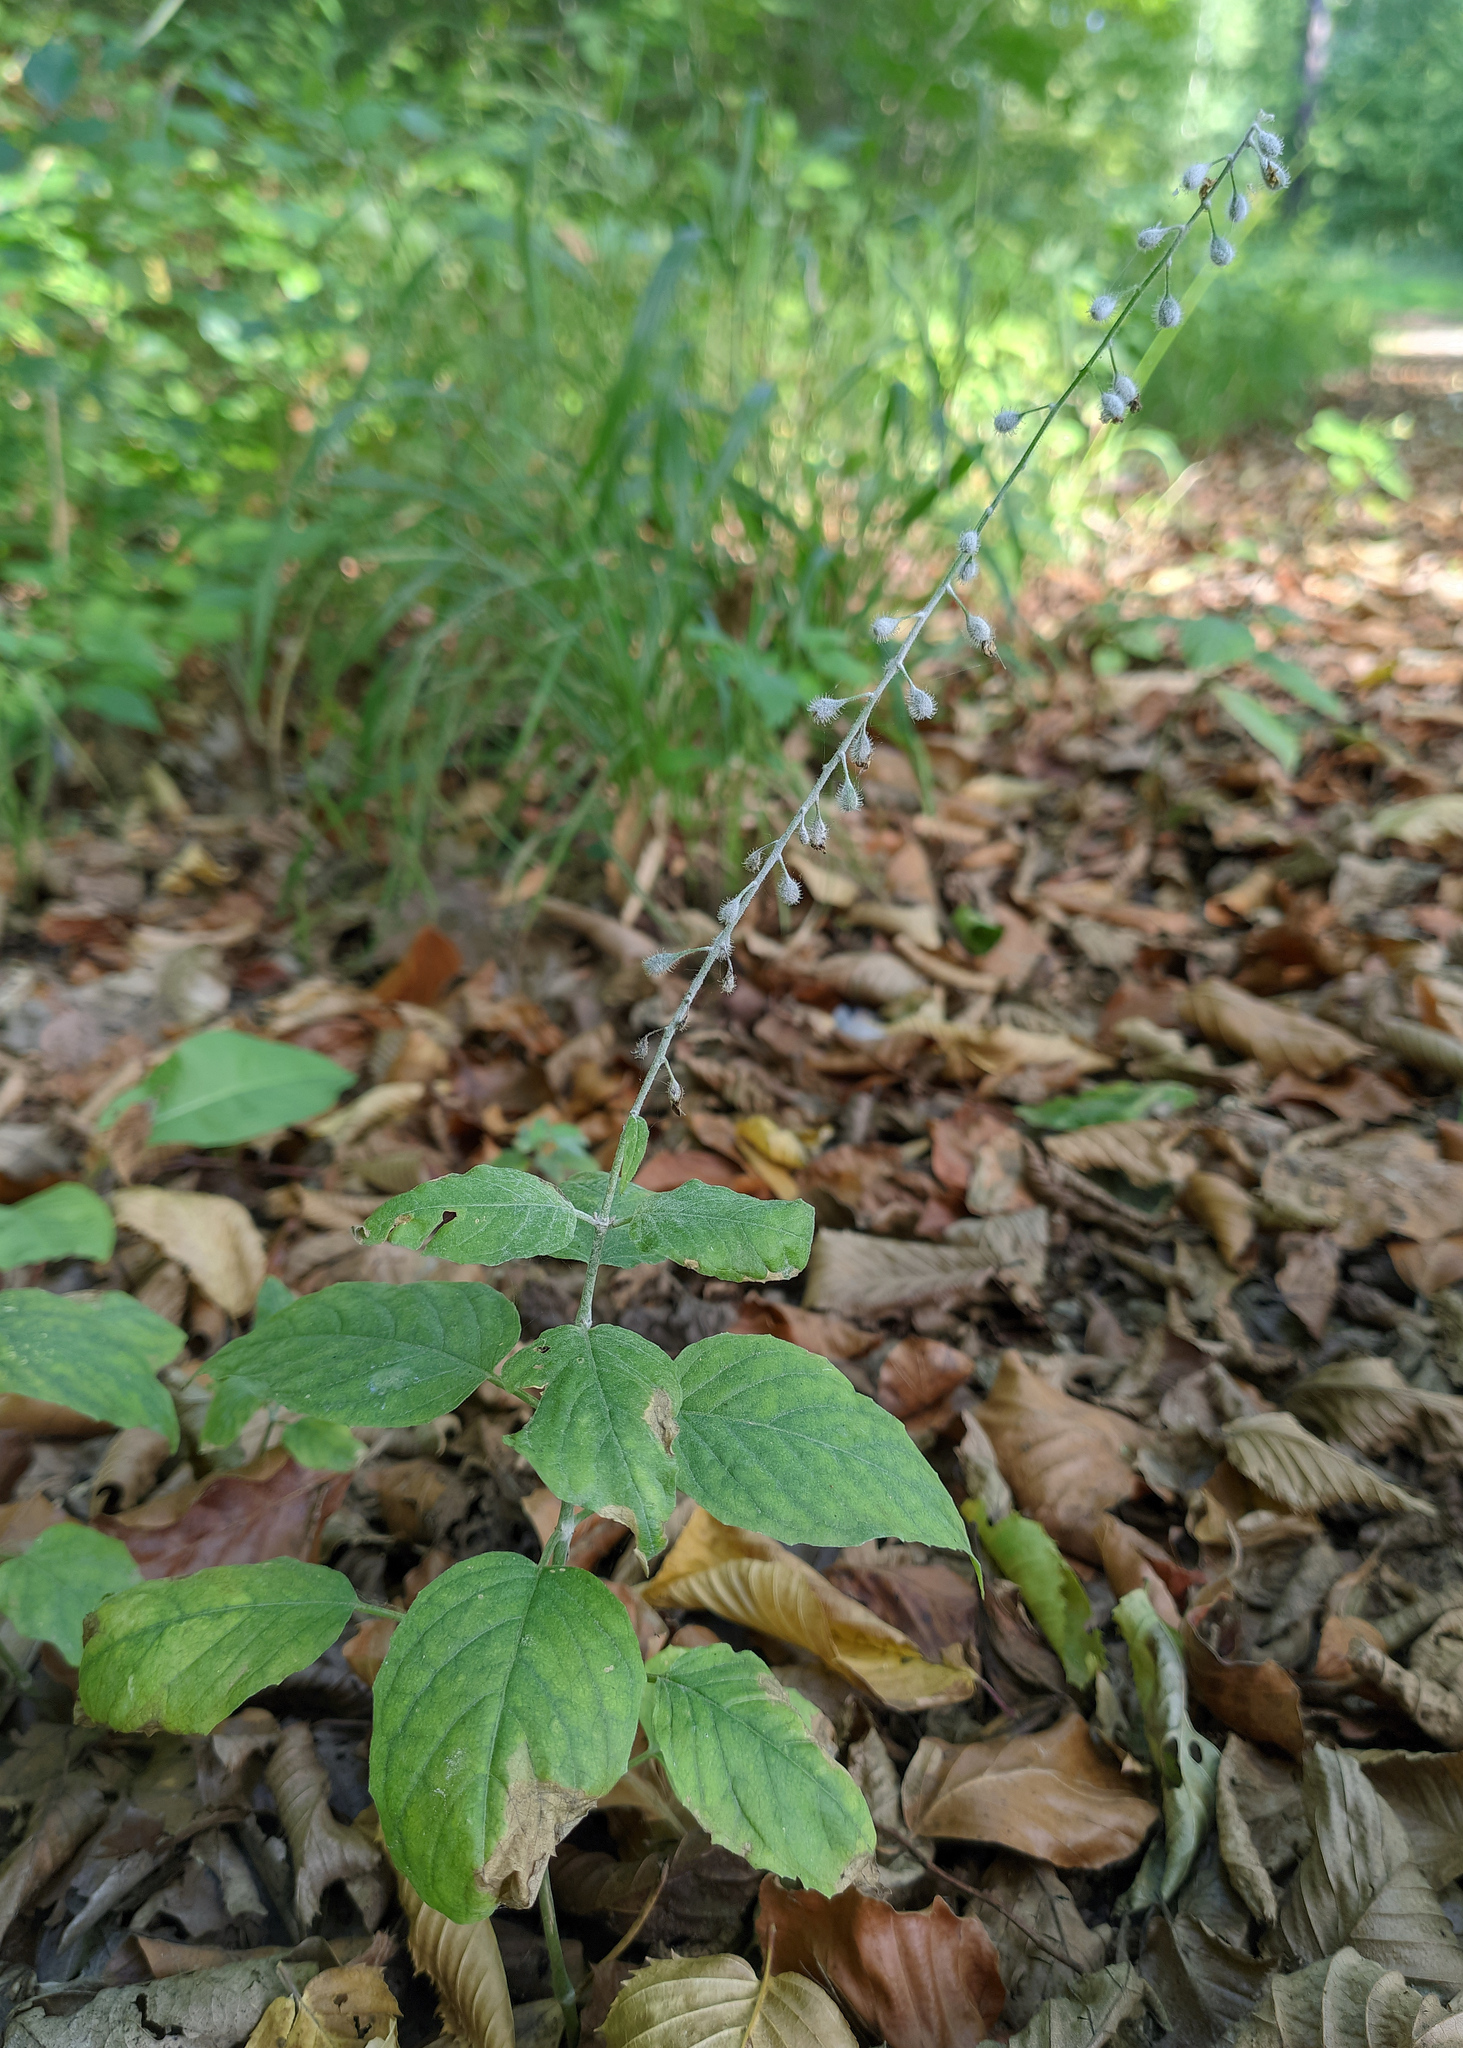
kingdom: Plantae
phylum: Tracheophyta
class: Magnoliopsida
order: Myrtales
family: Onagraceae
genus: Circaea
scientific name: Circaea lutetiana
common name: Enchanter's-nightshade
